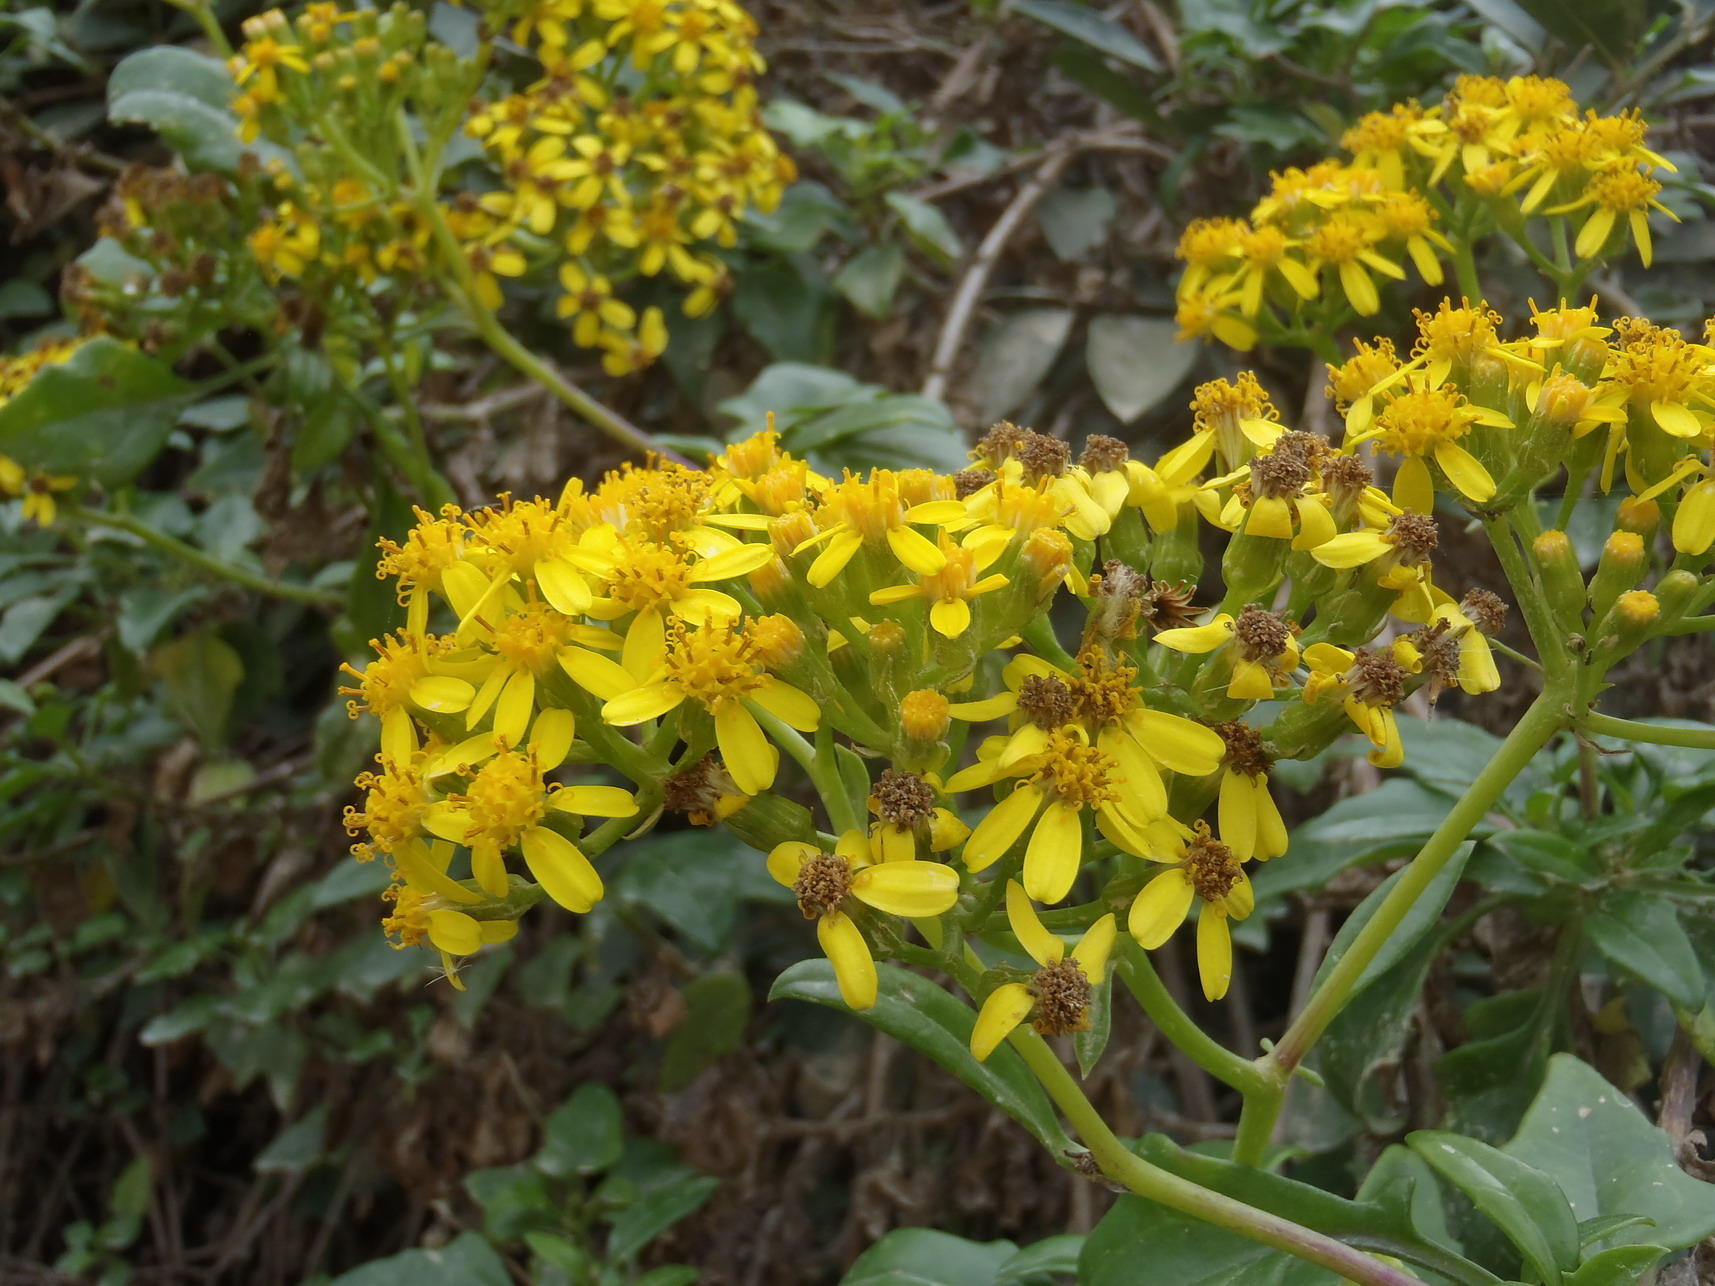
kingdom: Plantae
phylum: Tracheophyta
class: Magnoliopsida
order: Asterales
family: Asteraceae
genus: Senecio
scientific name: Senecio angulatus
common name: Climbing groundsel
